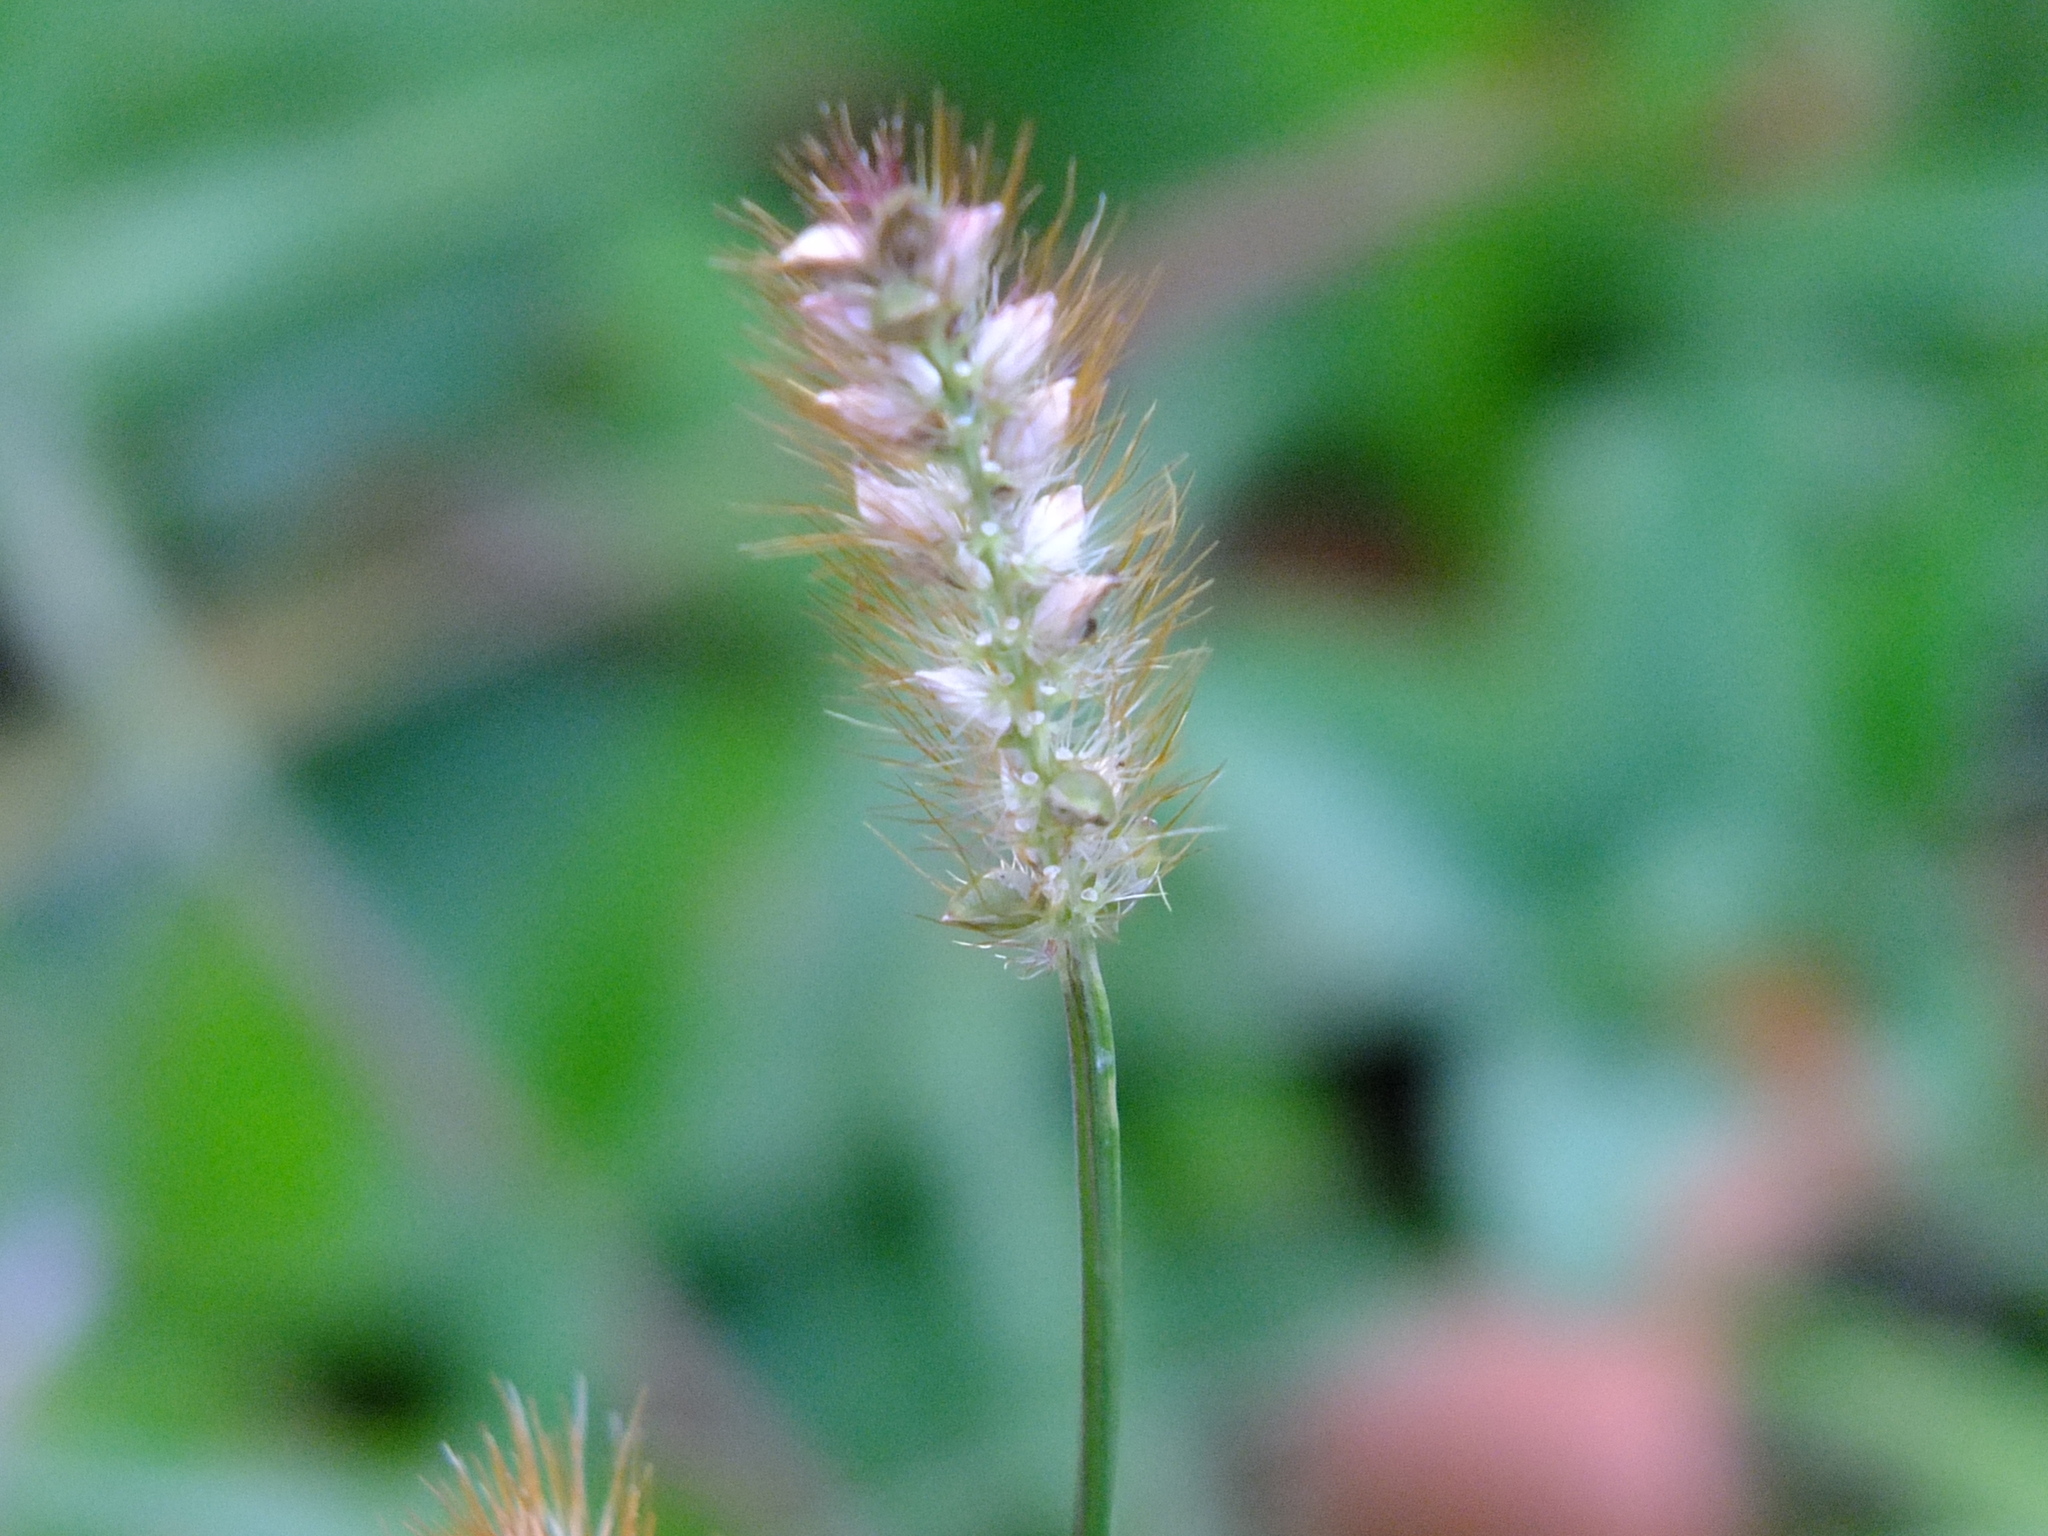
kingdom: Plantae
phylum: Tracheophyta
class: Liliopsida
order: Poales
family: Poaceae
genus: Setaria
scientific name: Setaria pumila
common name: Yellow bristle-grass
